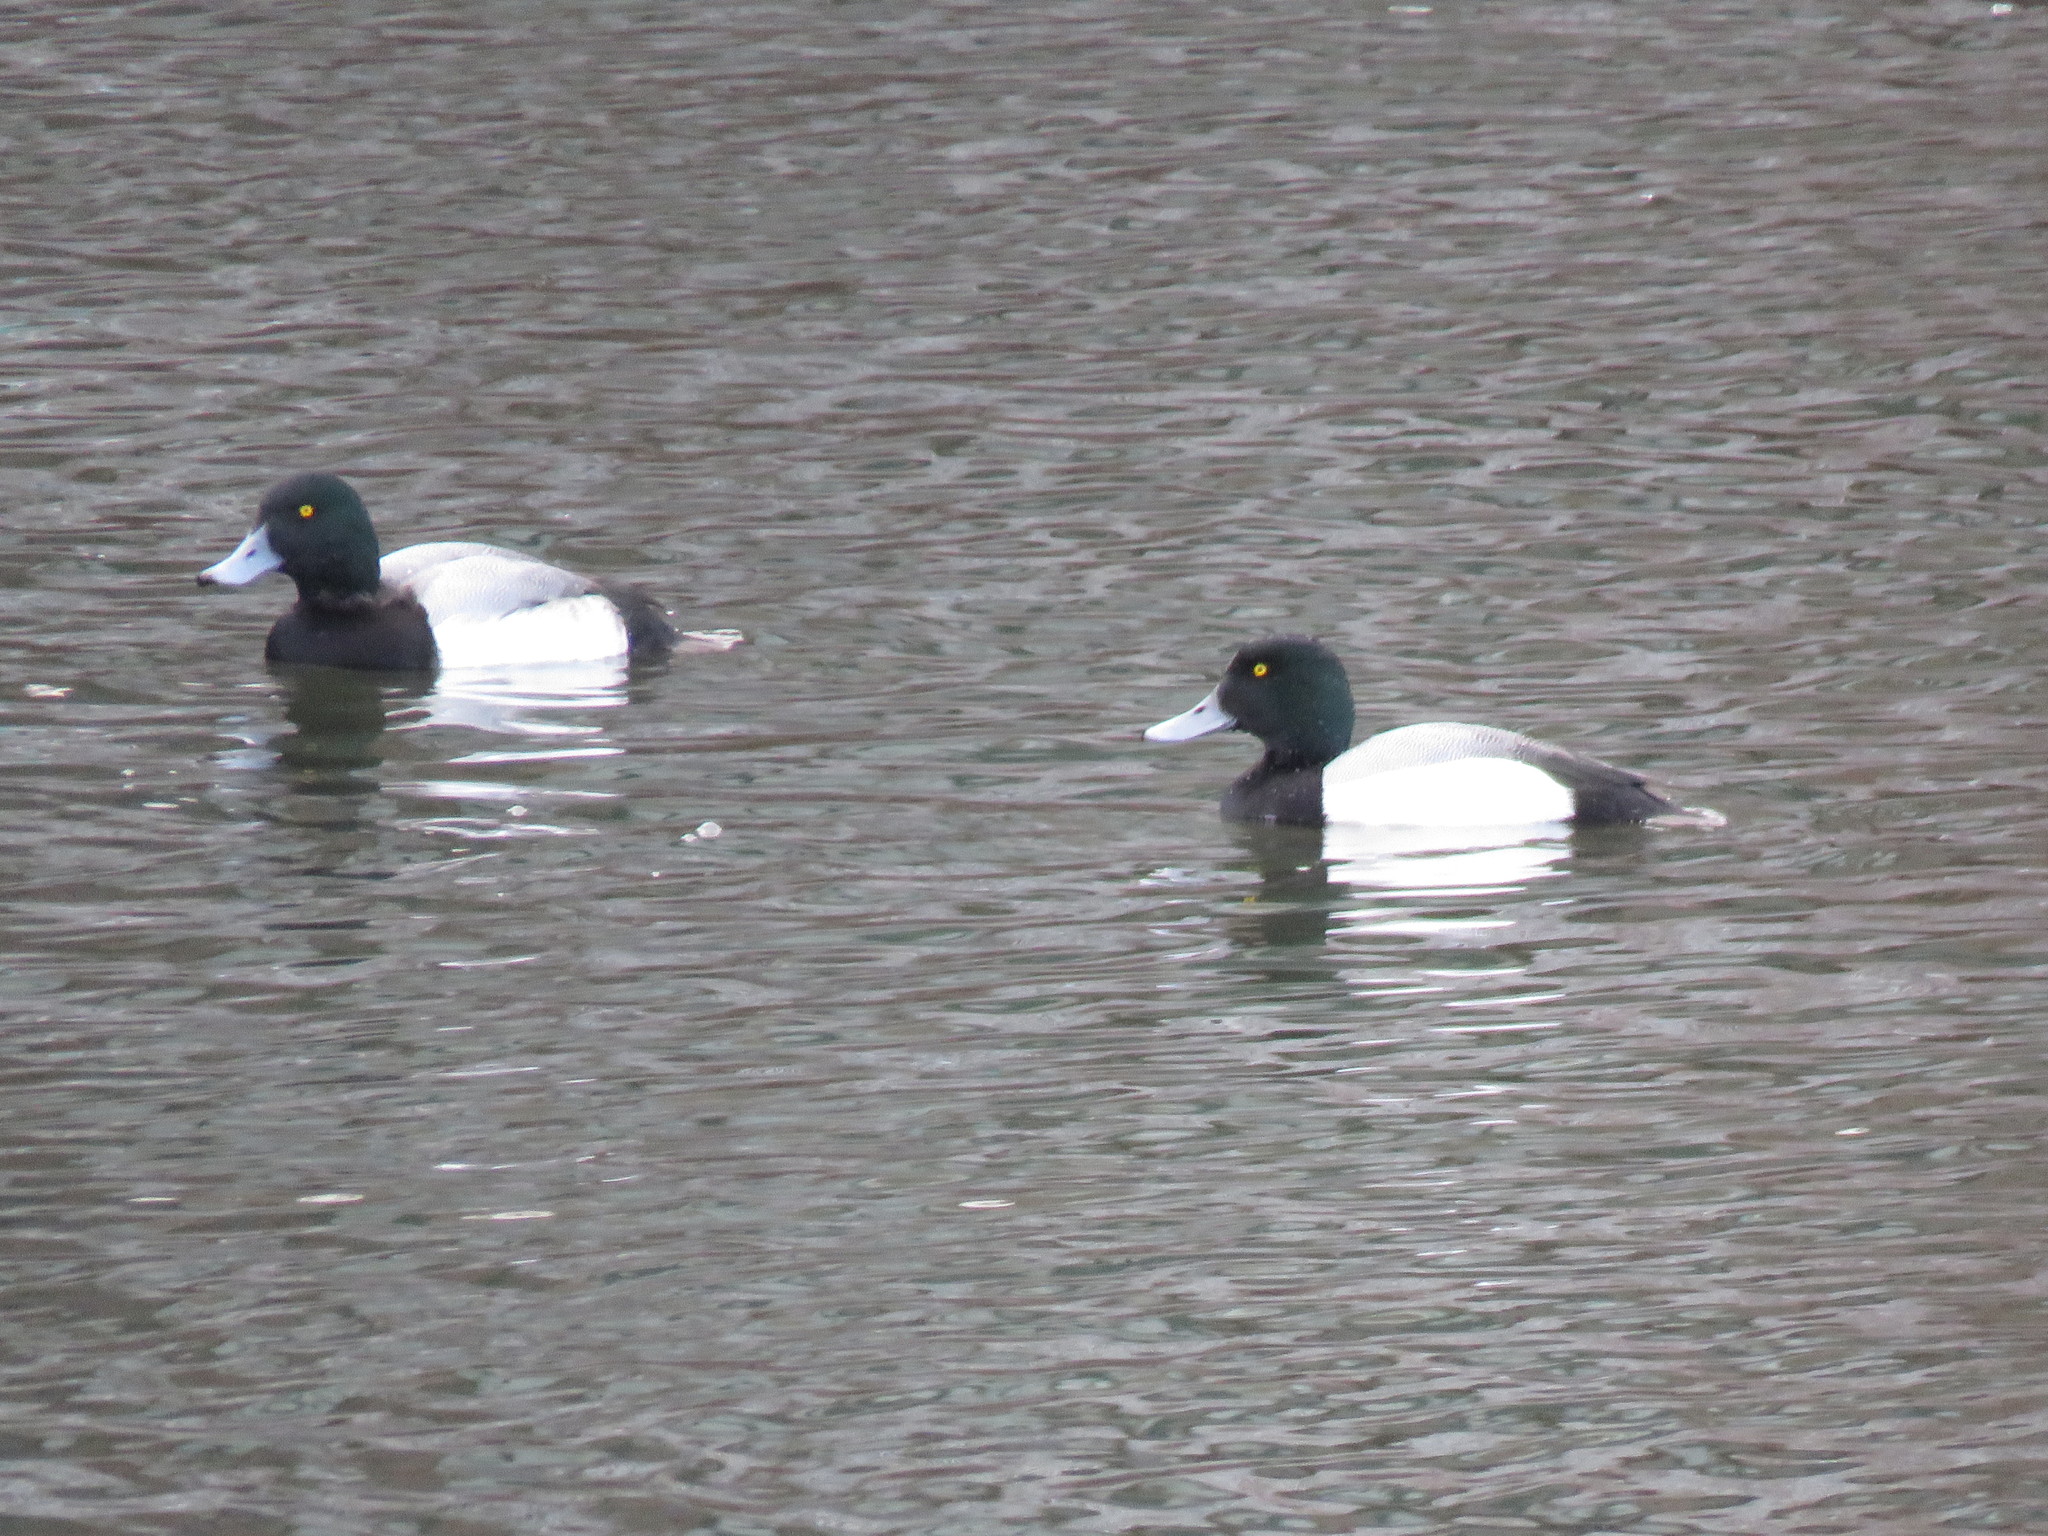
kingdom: Animalia
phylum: Chordata
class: Aves
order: Anseriformes
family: Anatidae
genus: Aythya
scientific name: Aythya marila
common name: Greater scaup
